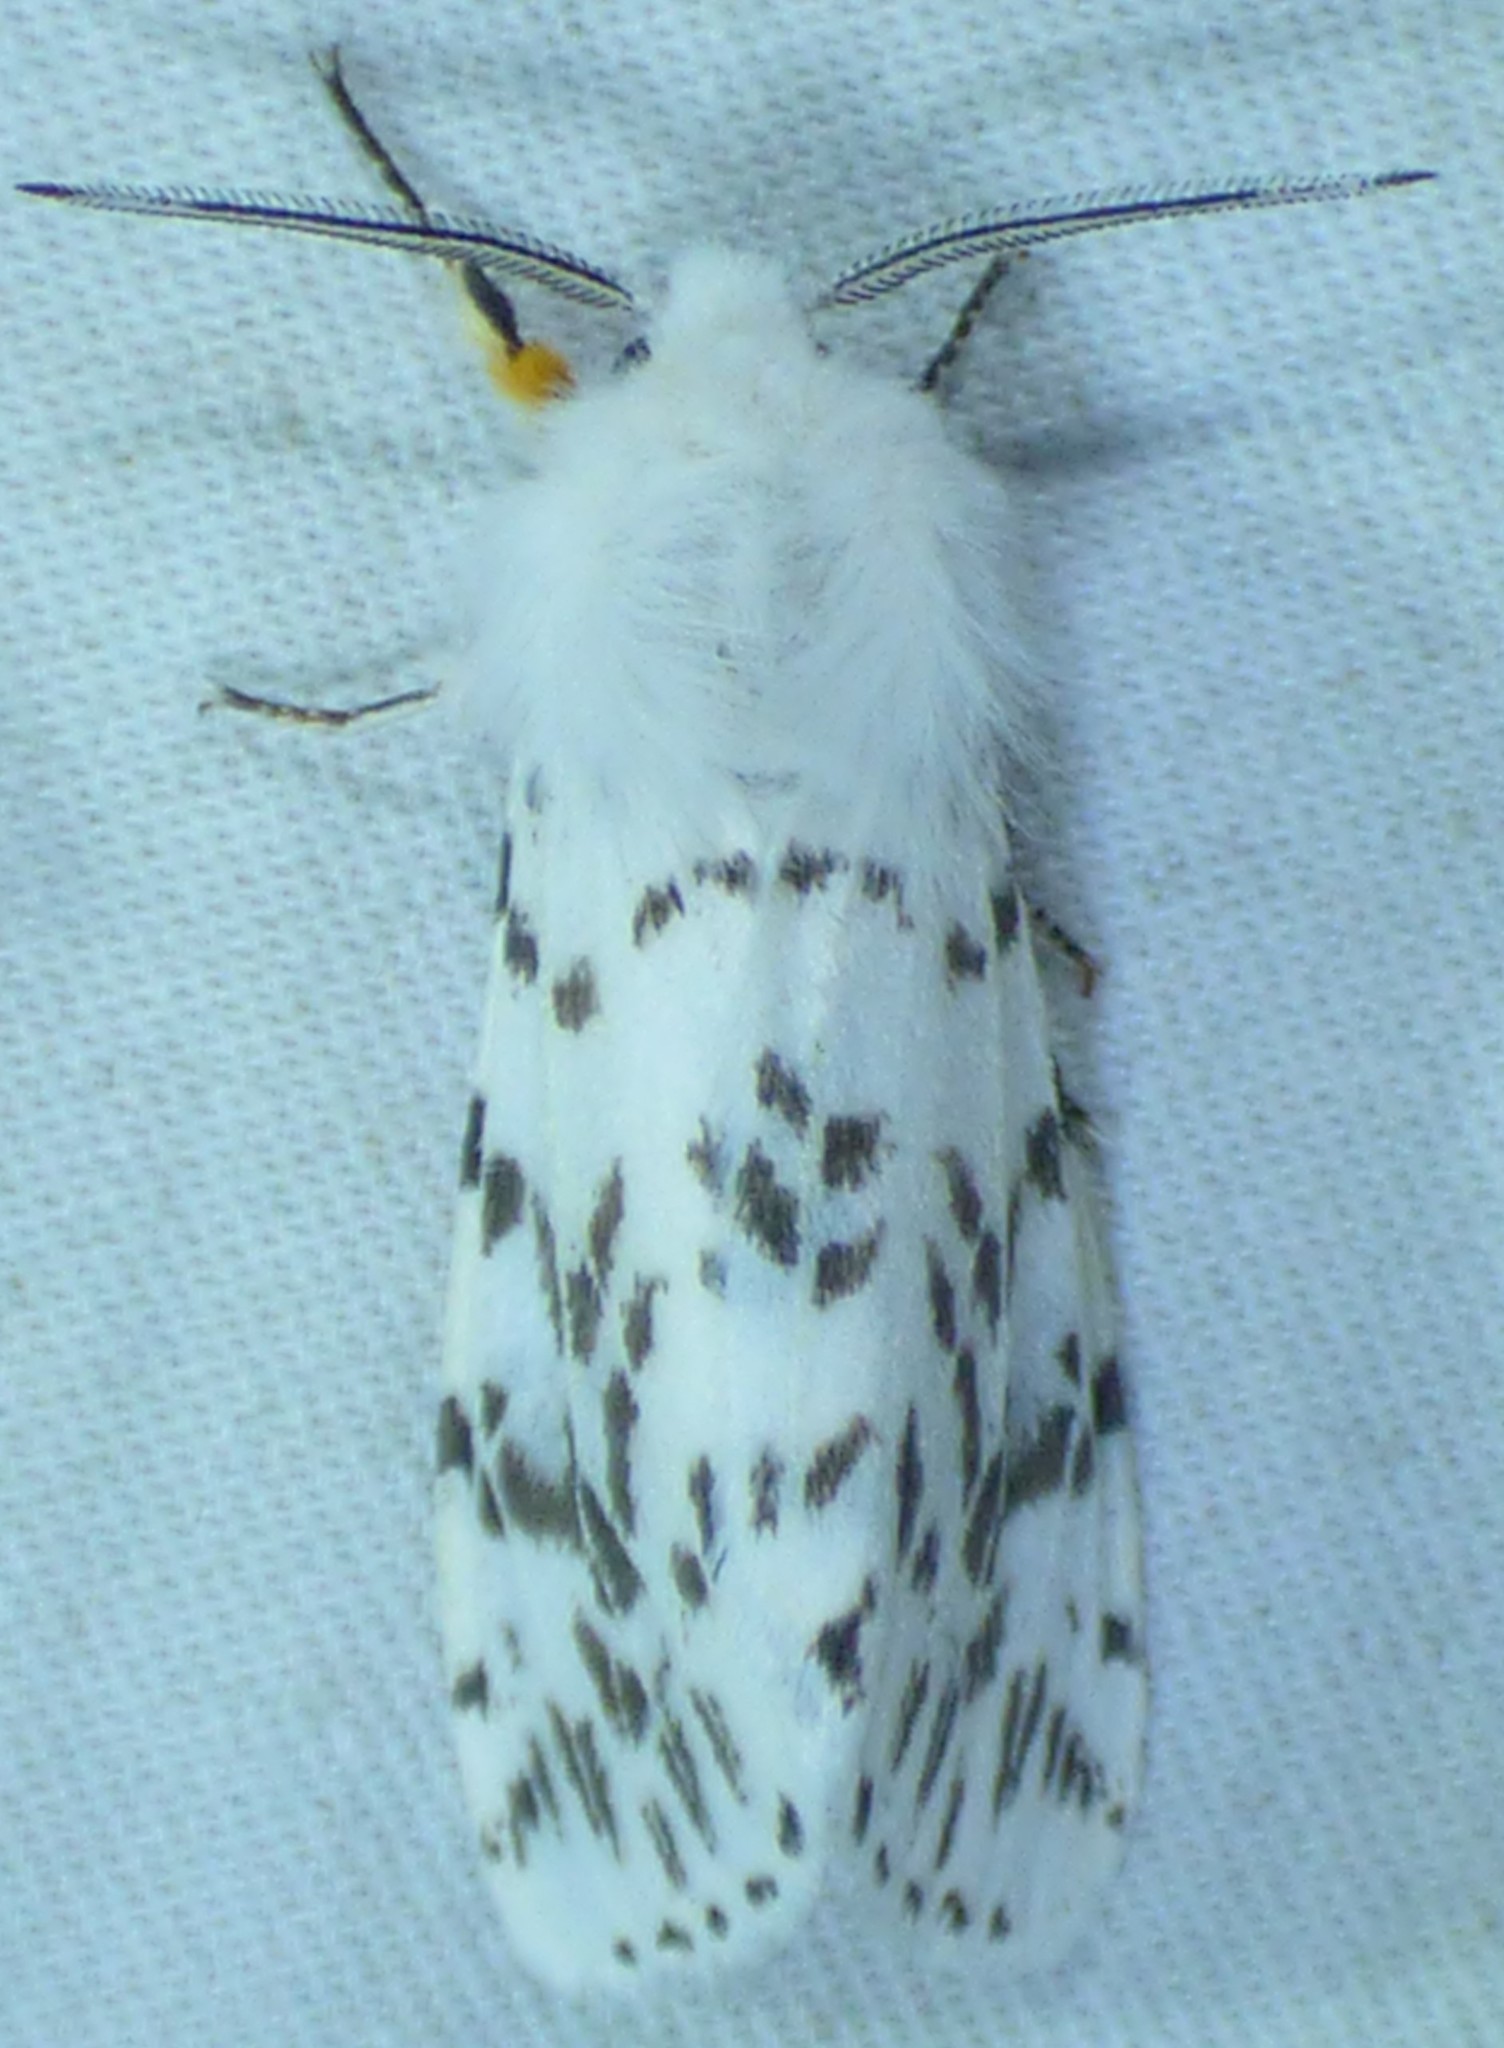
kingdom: Animalia
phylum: Arthropoda
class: Insecta
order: Lepidoptera
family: Erebidae
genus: Hyphantria
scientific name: Hyphantria cunea
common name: American white moth
